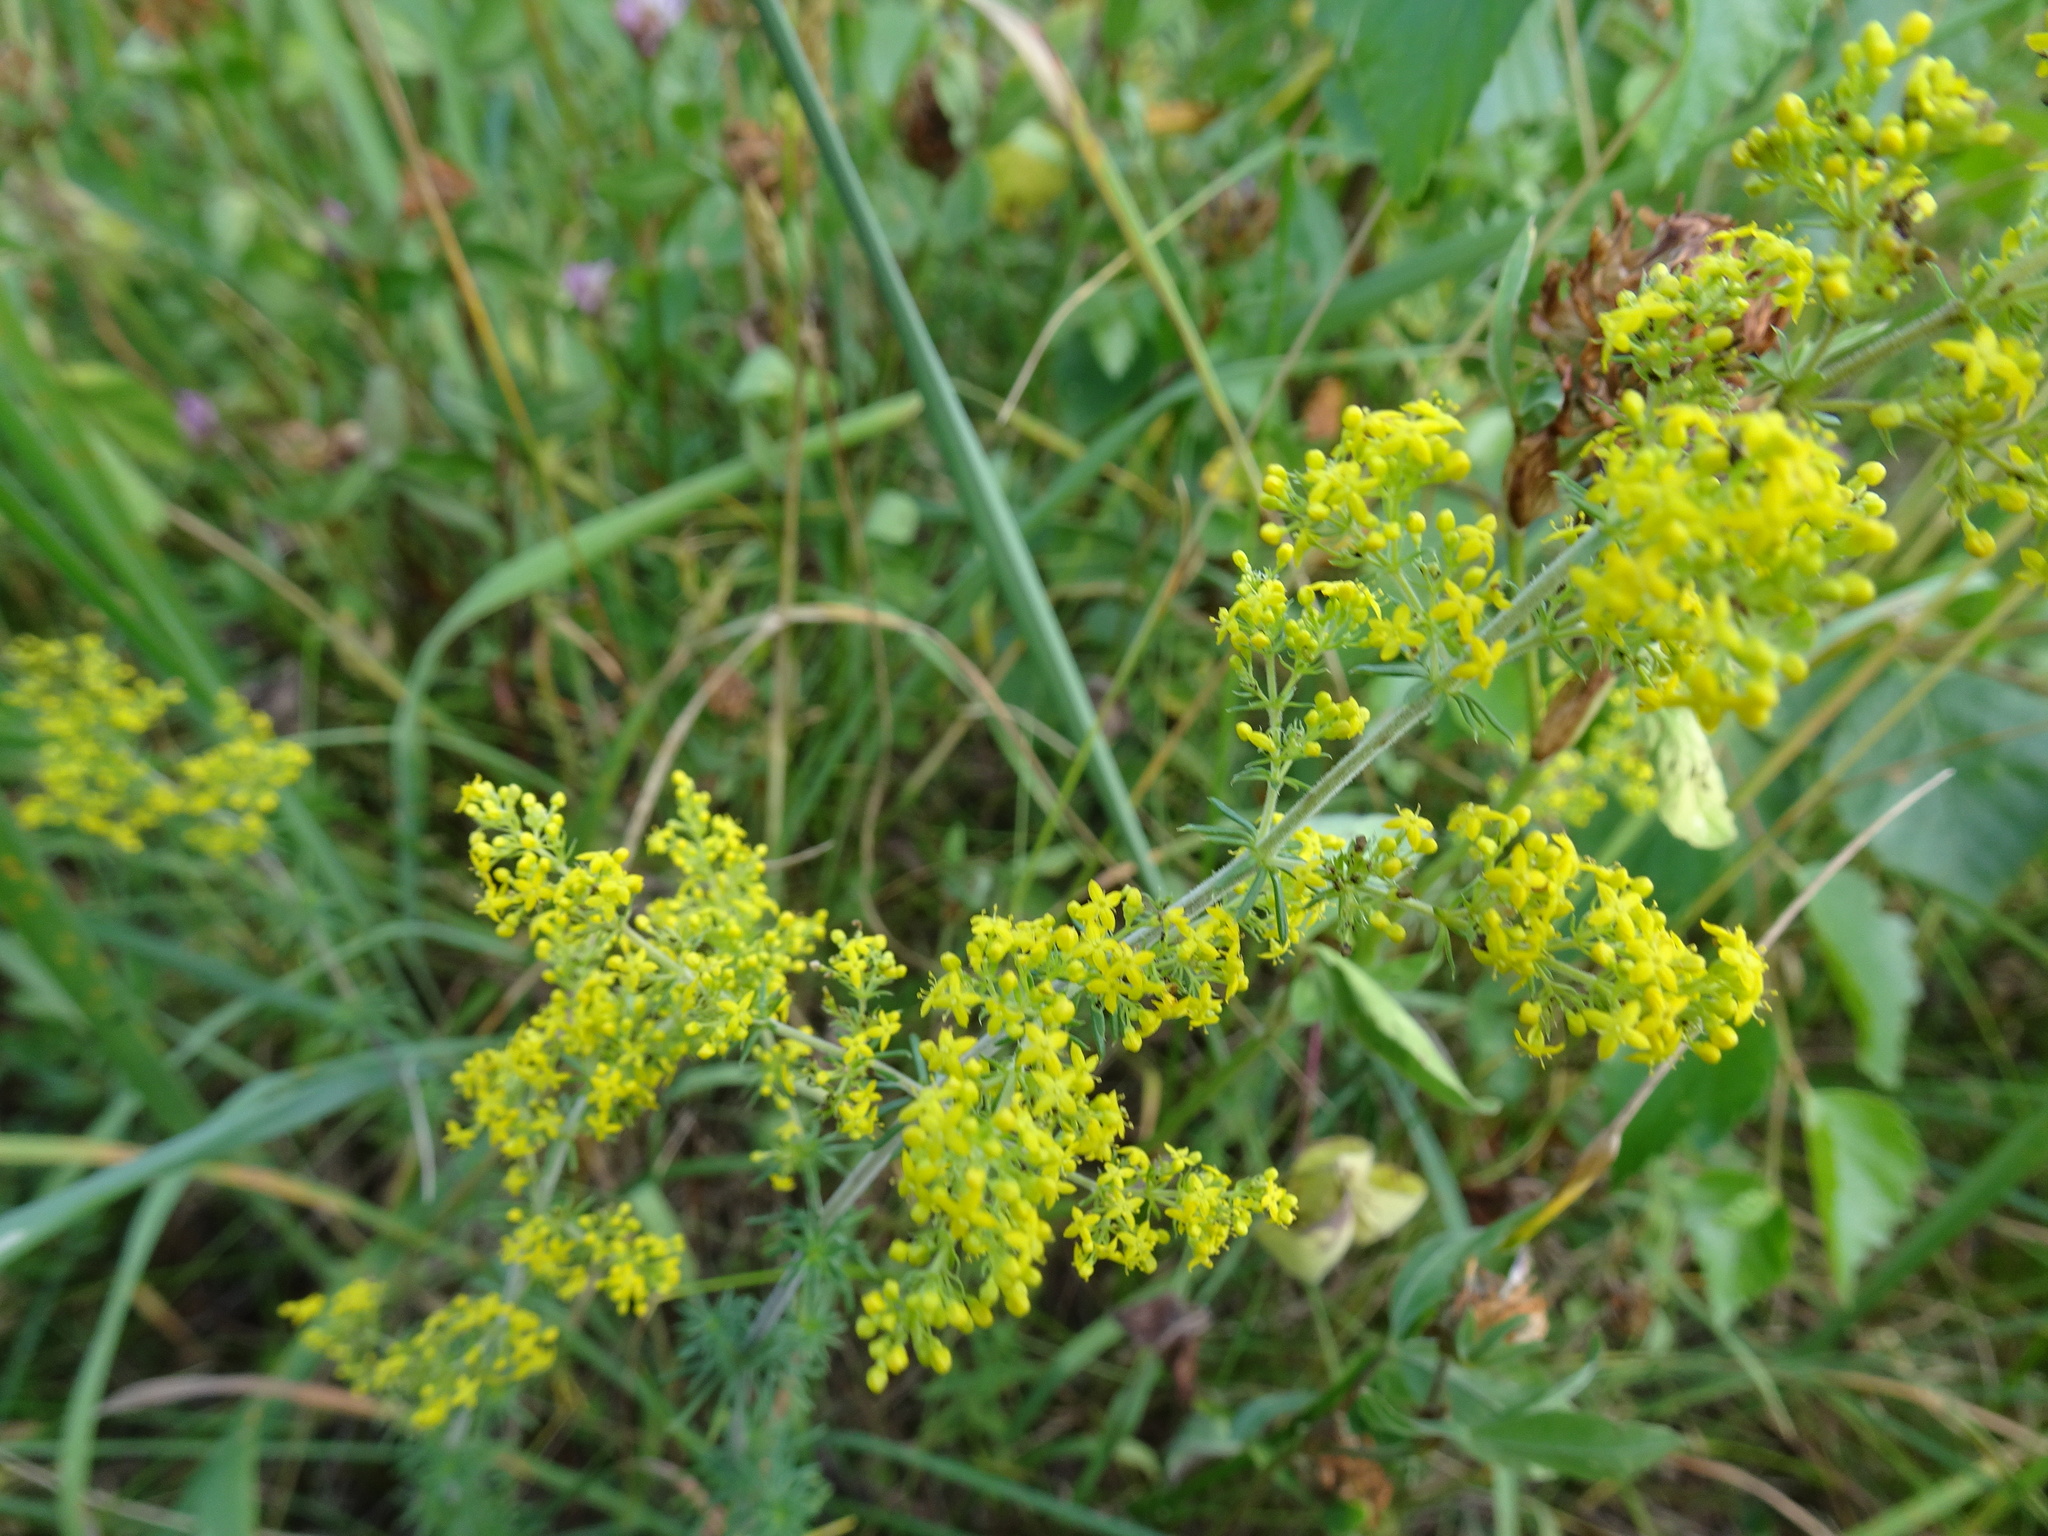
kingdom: Plantae
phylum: Tracheophyta
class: Magnoliopsida
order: Gentianales
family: Rubiaceae
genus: Galium
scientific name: Galium verum
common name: Lady's bedstraw
